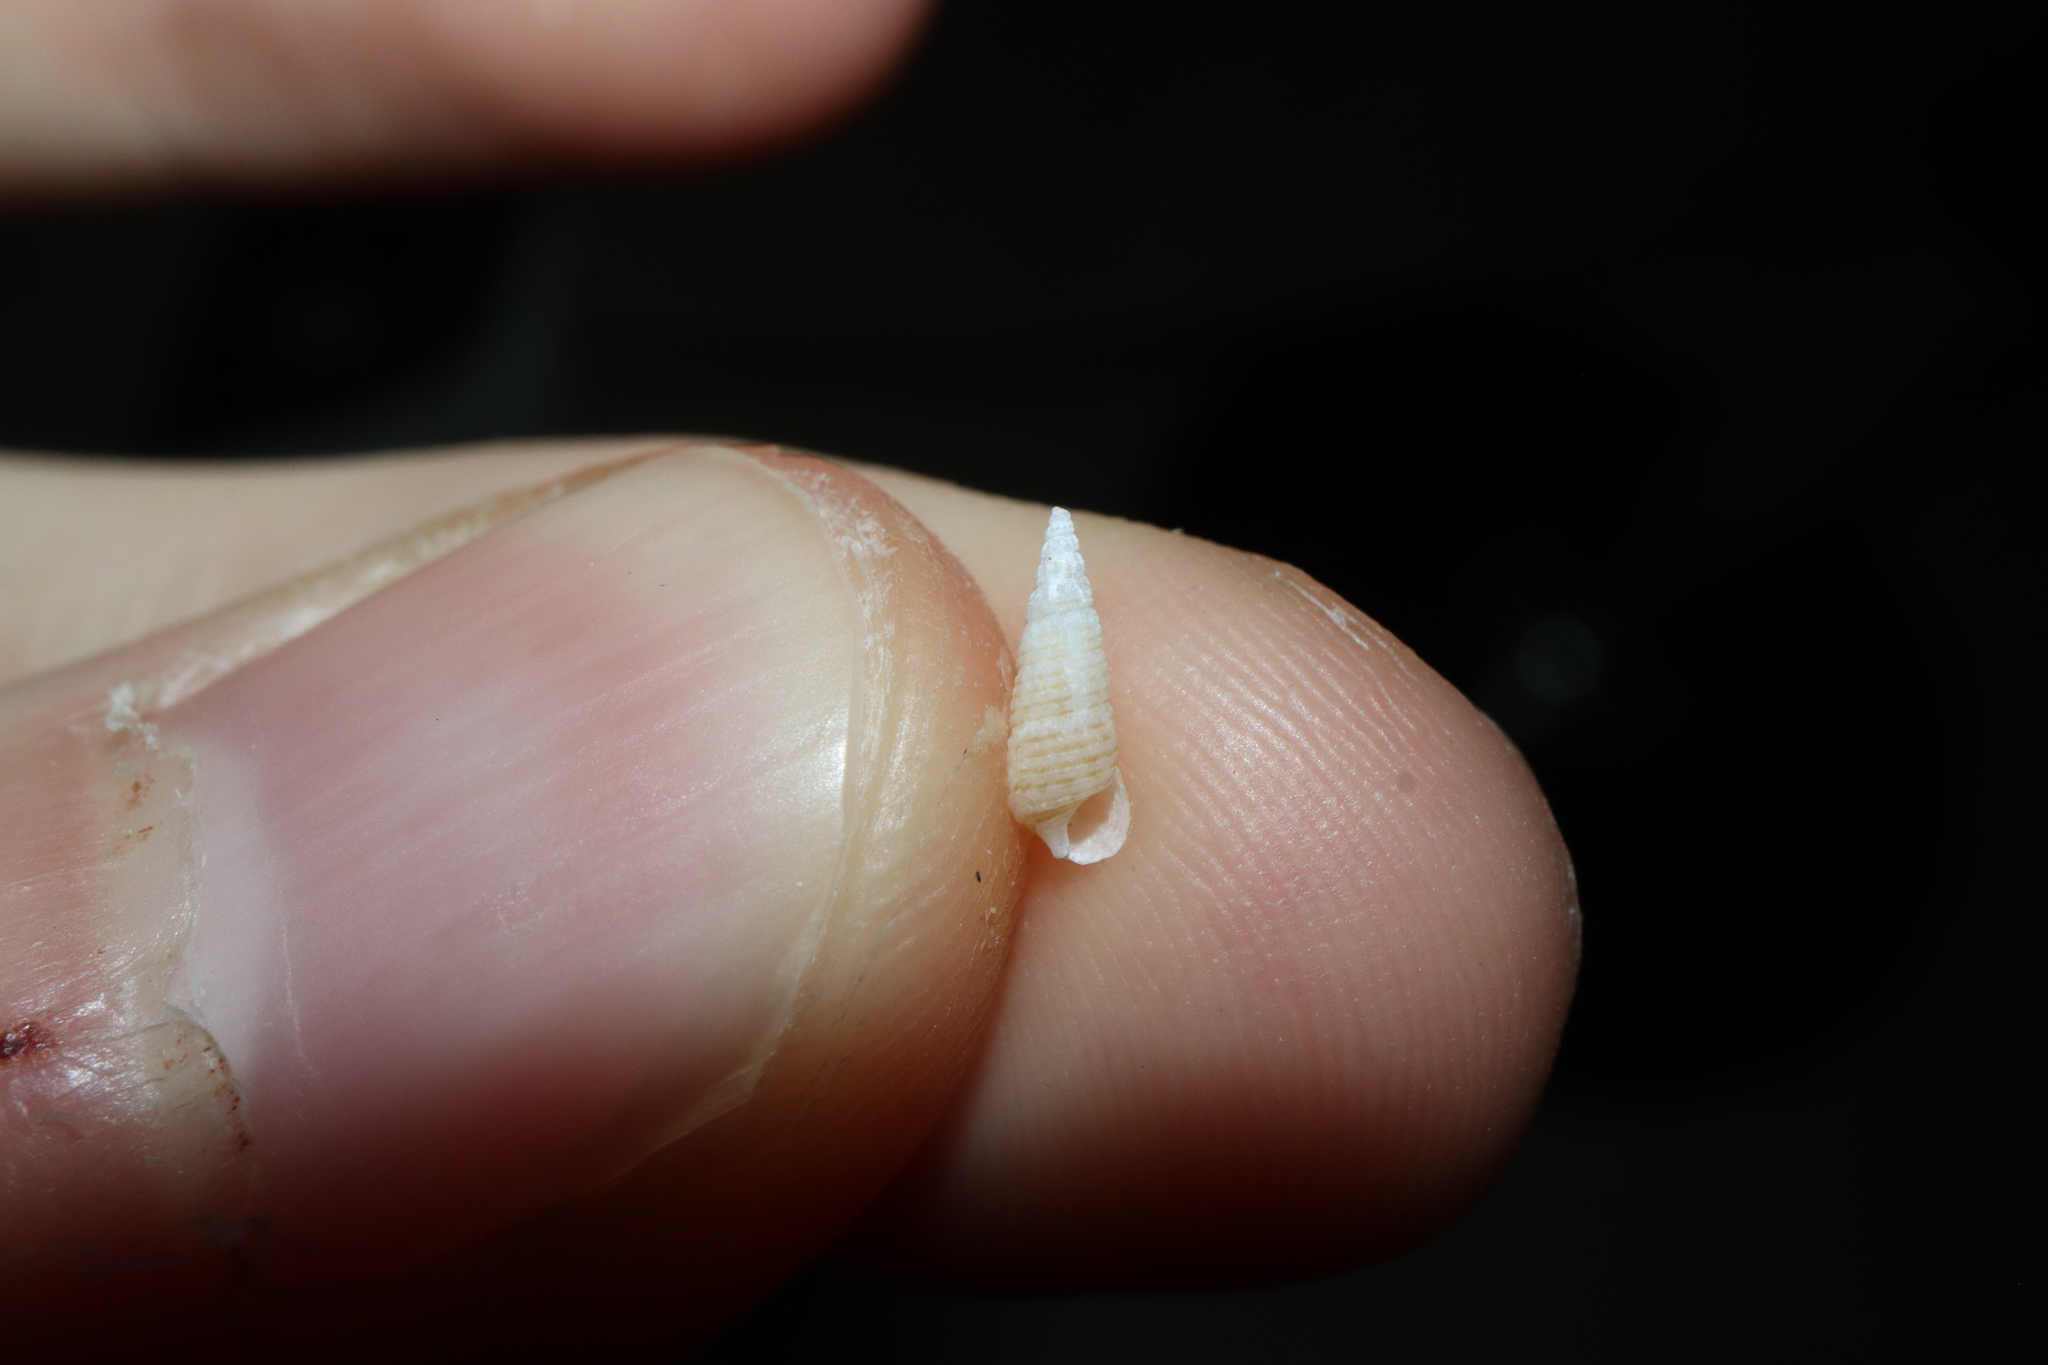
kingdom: Animalia
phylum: Mollusca
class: Gastropoda
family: Cerithiidae
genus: Cacozeliana
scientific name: Cacozeliana granarium
